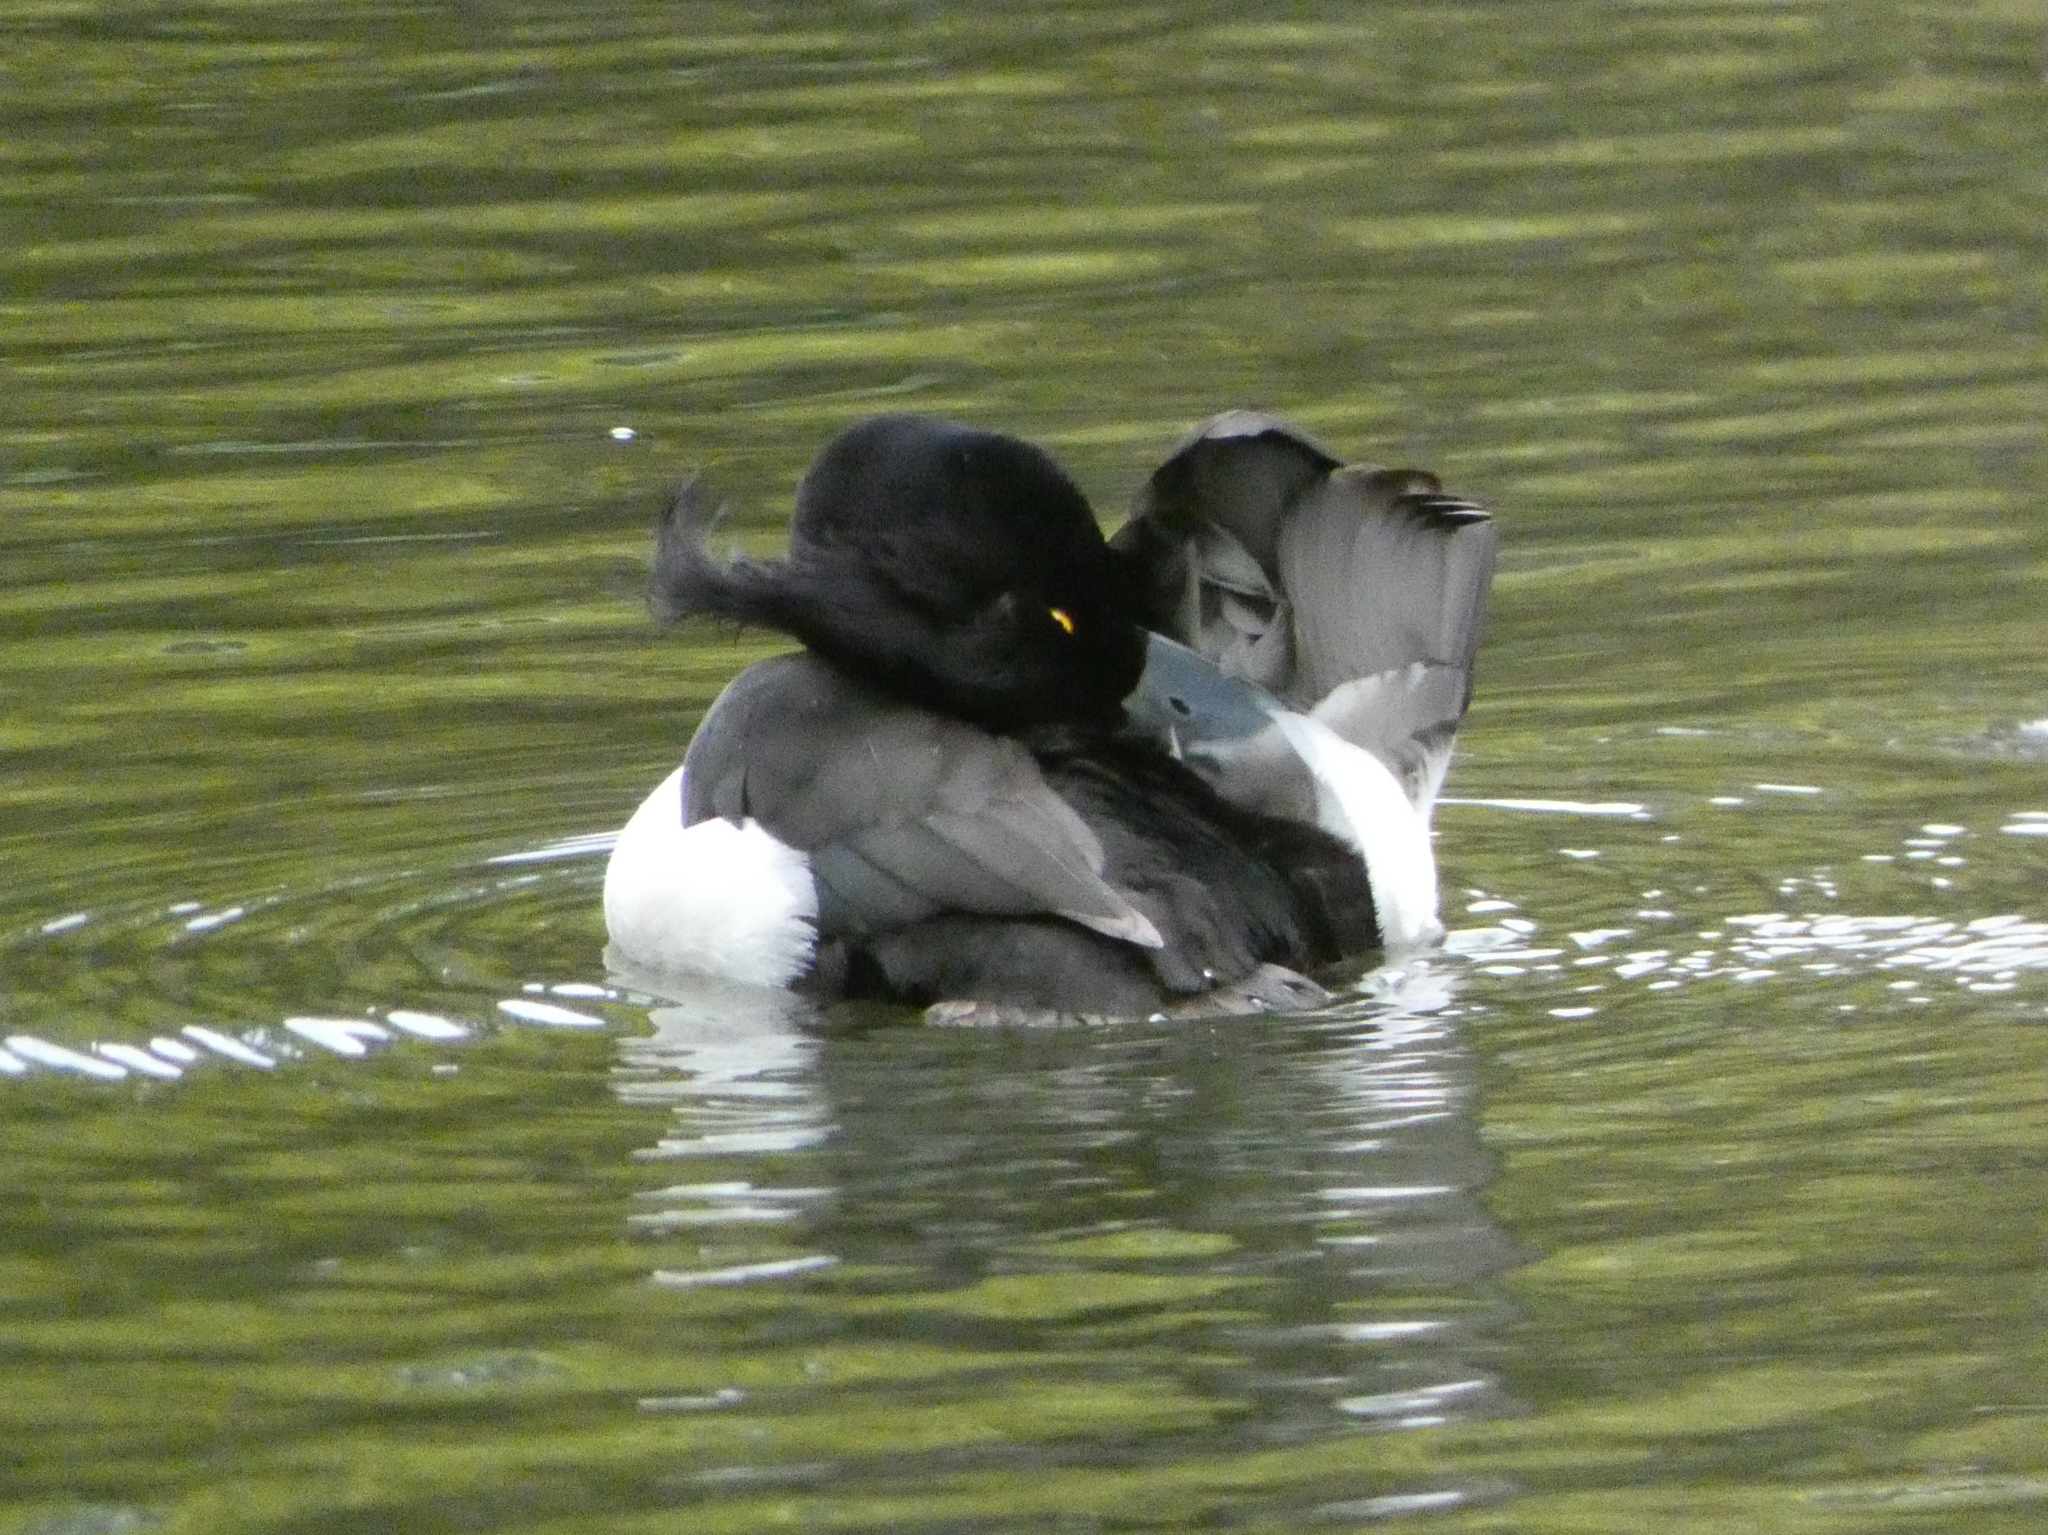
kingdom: Animalia
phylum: Chordata
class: Aves
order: Anseriformes
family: Anatidae
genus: Aythya
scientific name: Aythya fuligula
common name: Tufted duck
